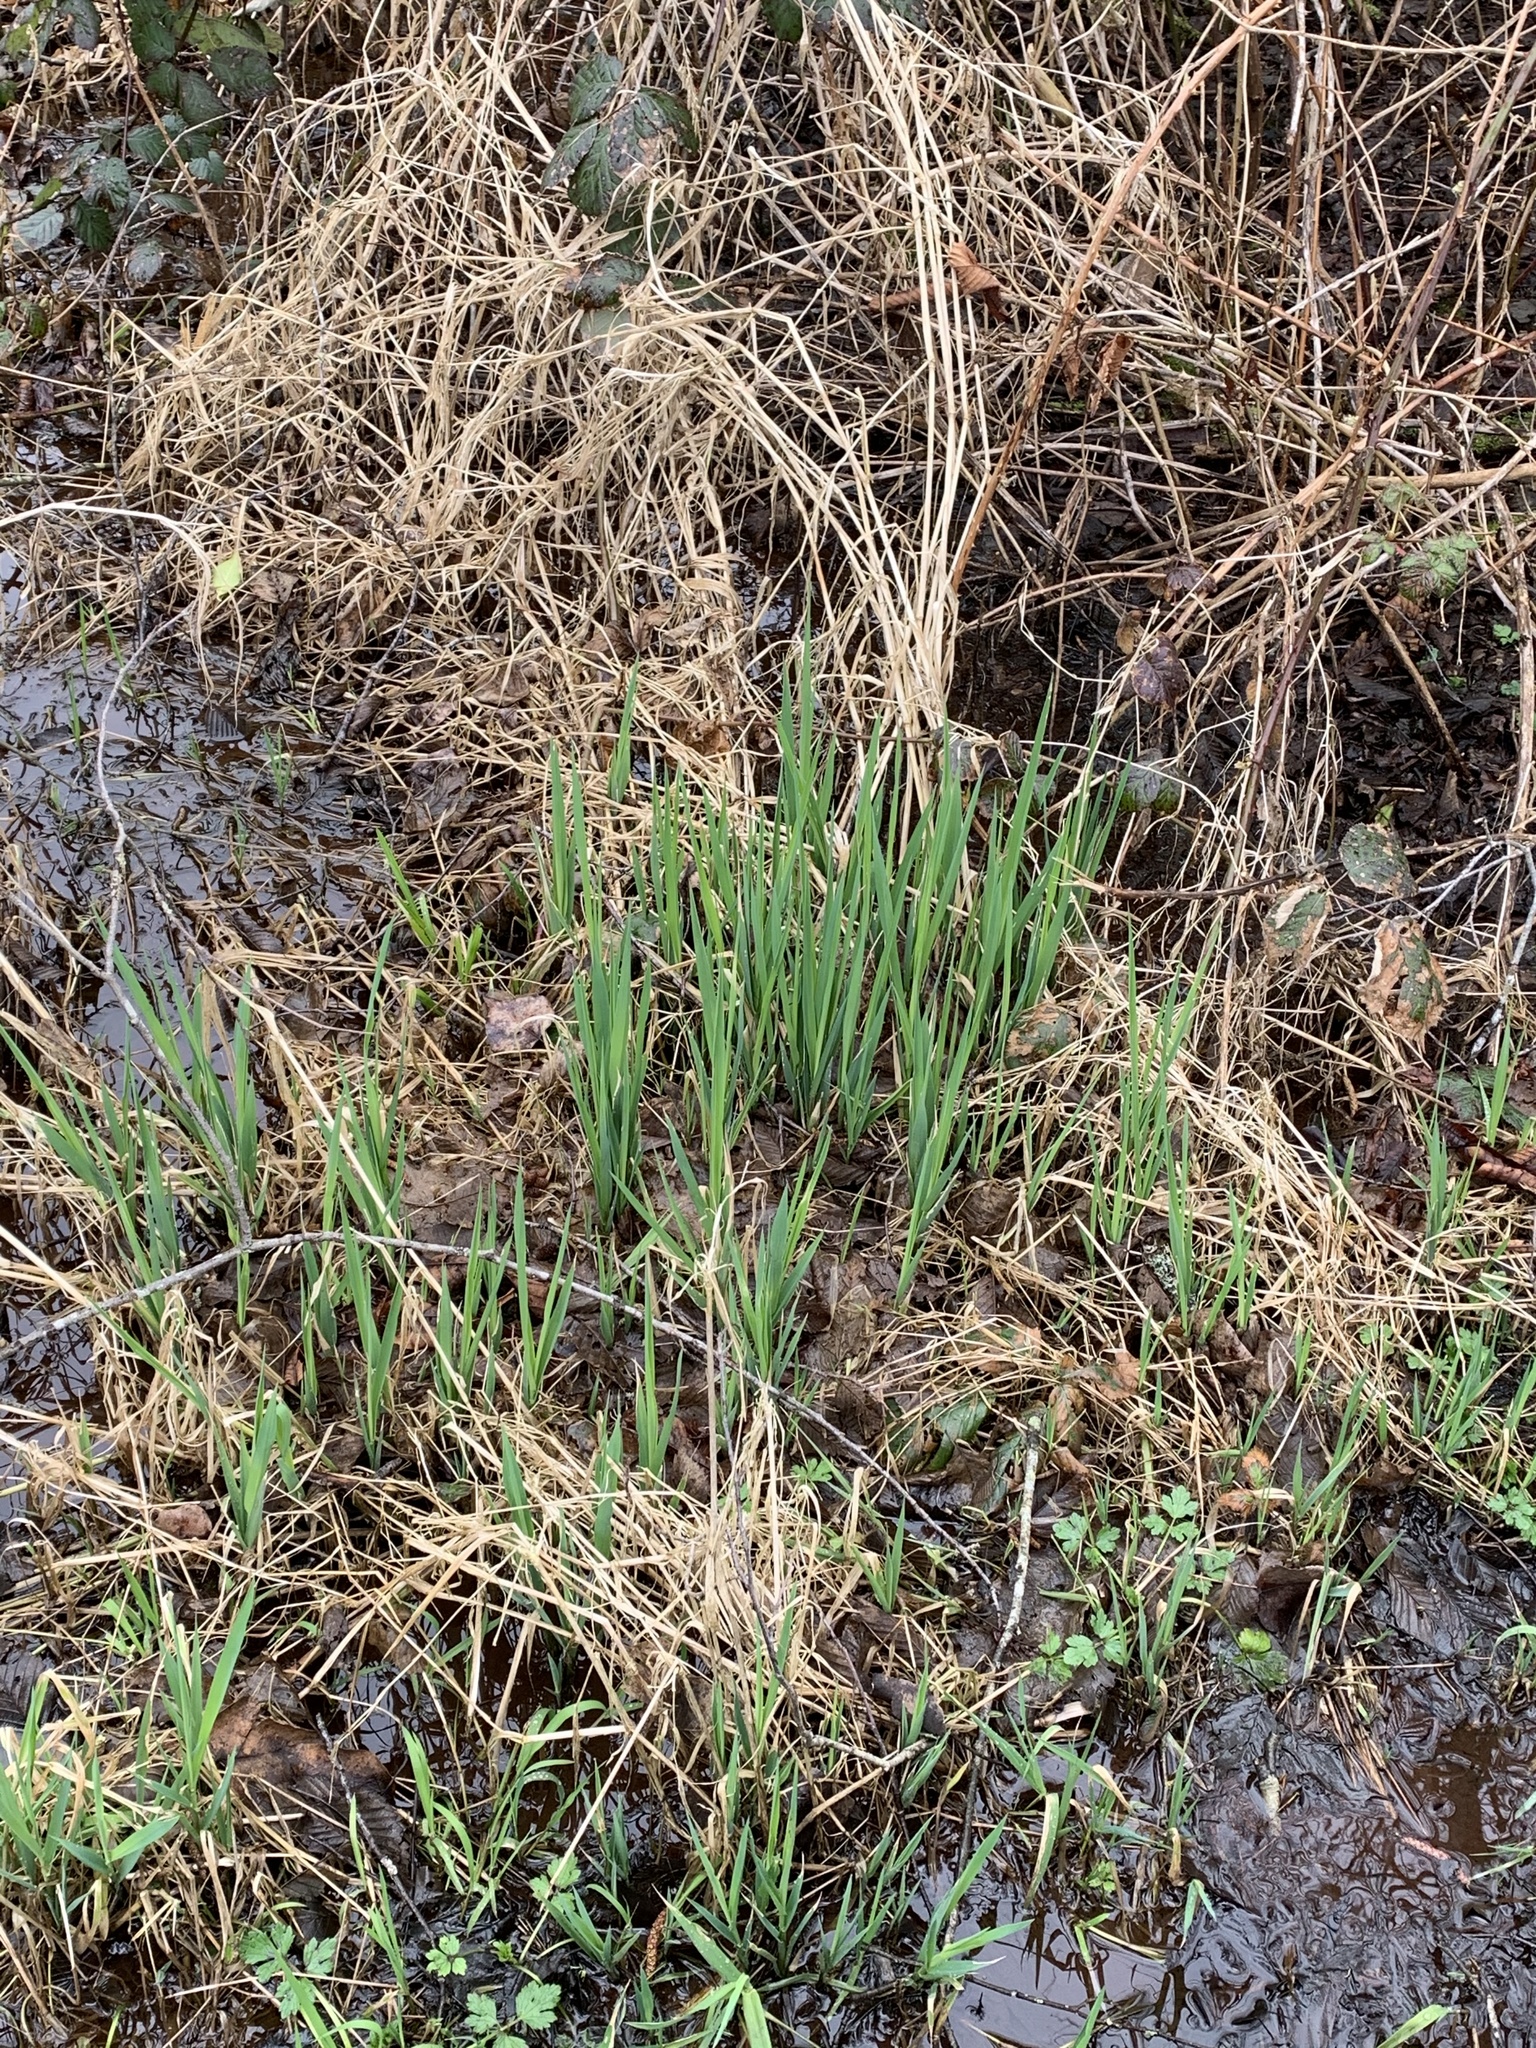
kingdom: Plantae
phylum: Tracheophyta
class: Liliopsida
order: Asparagales
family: Iridaceae
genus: Iris
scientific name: Iris pseudacorus
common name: Yellow flag
